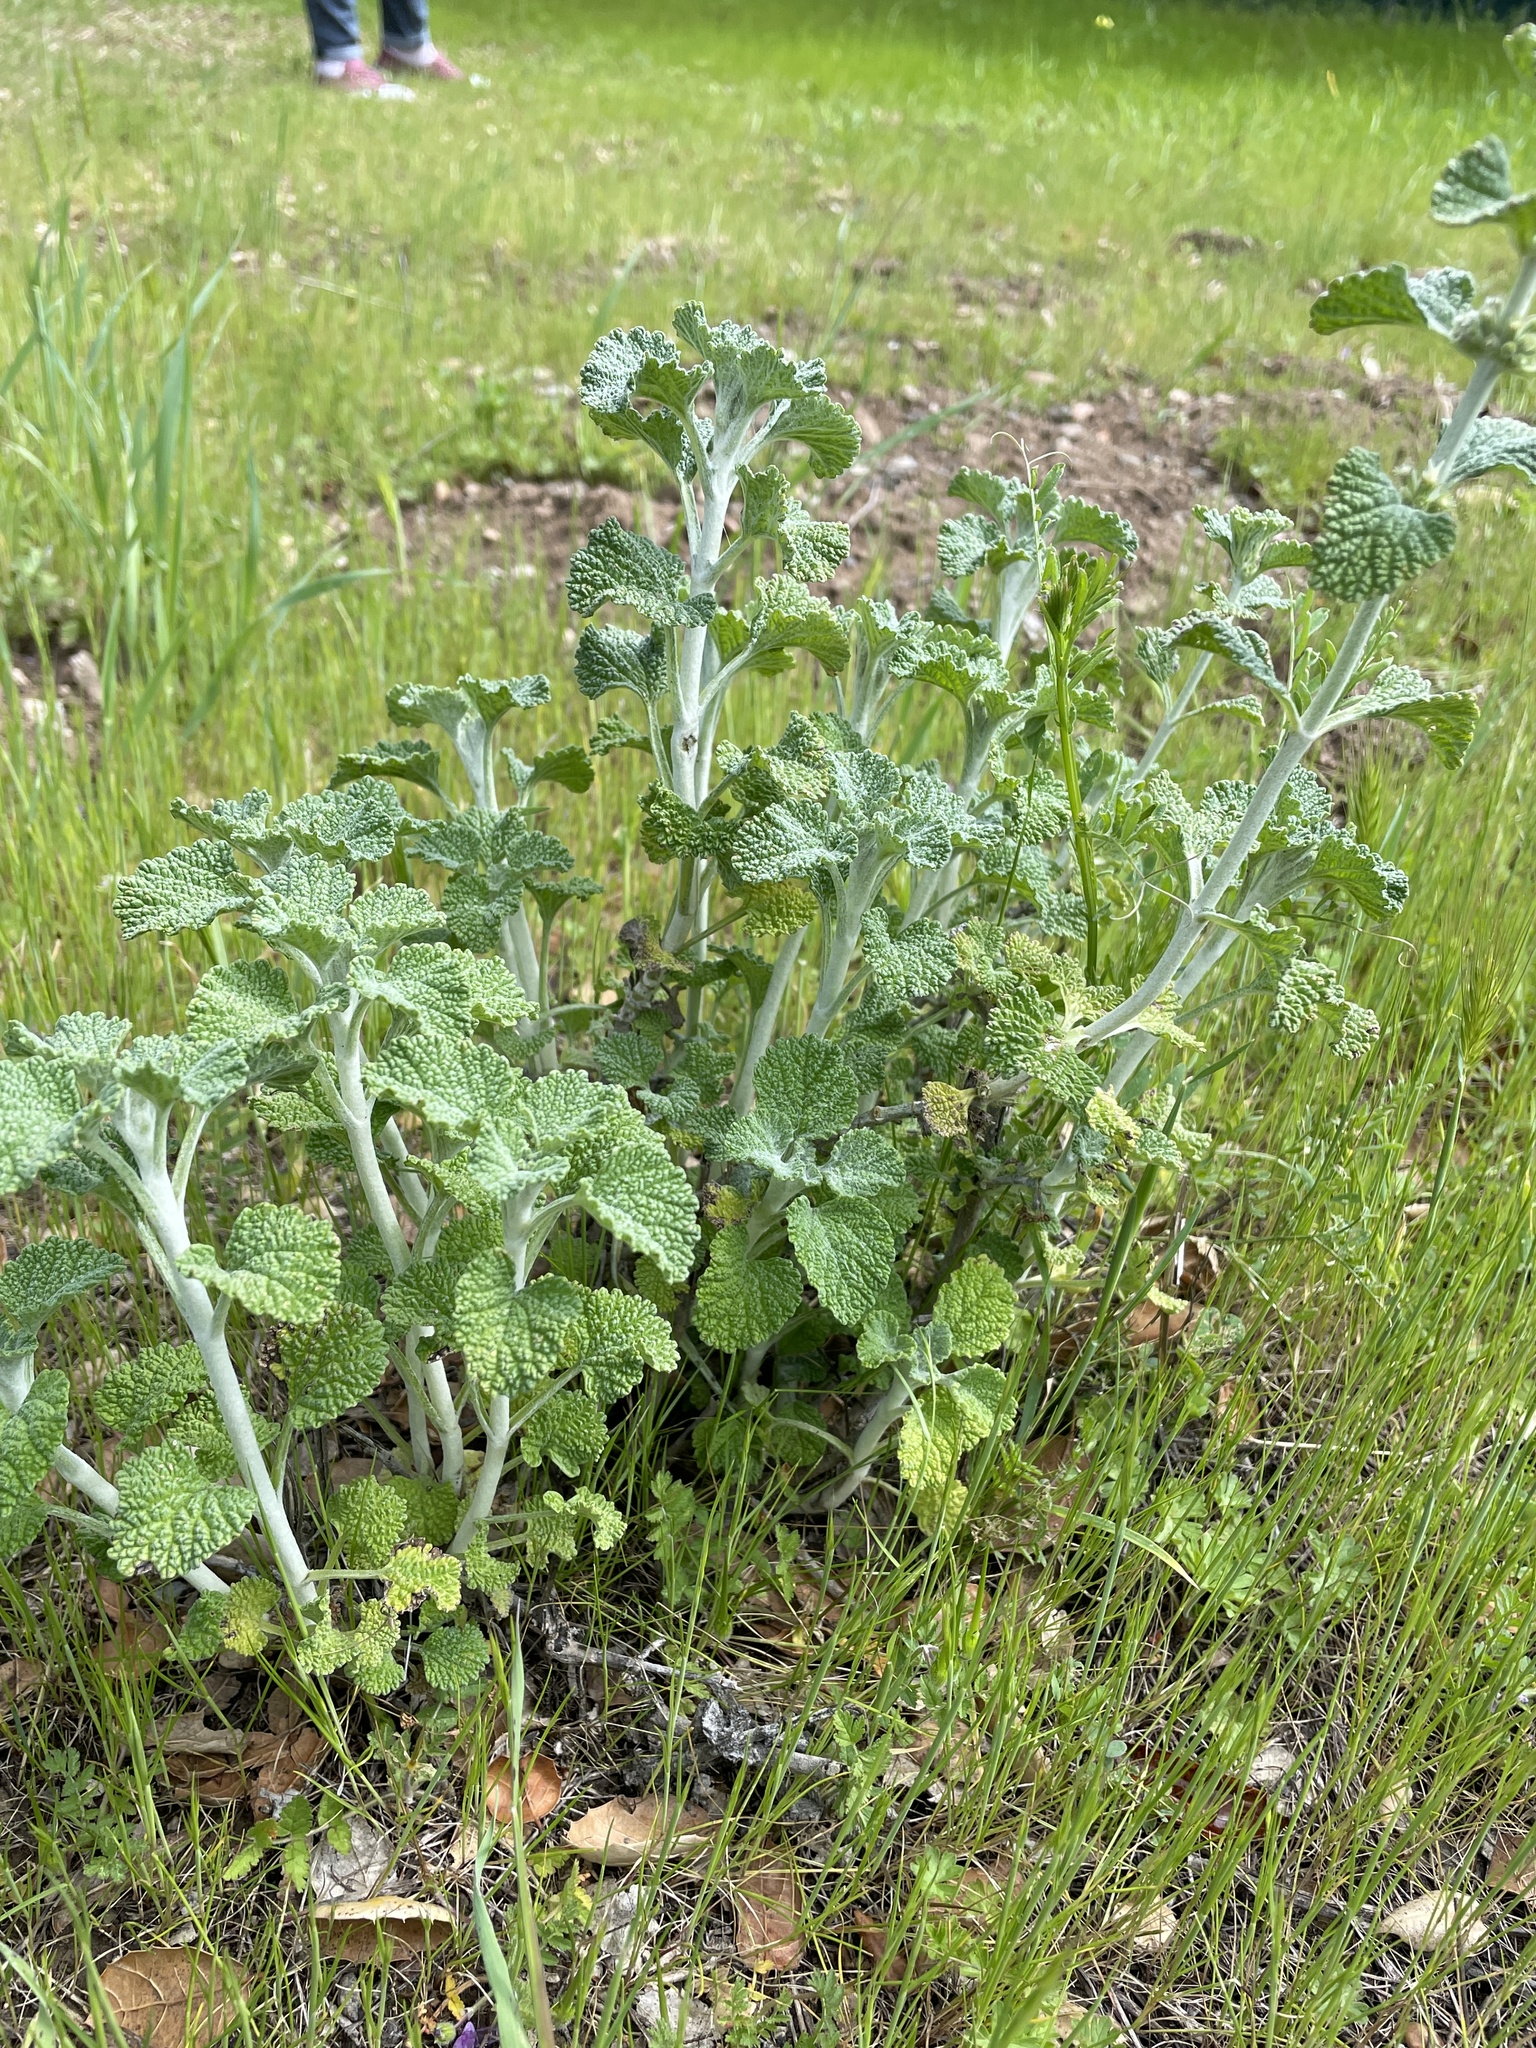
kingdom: Plantae
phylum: Tracheophyta
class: Magnoliopsida
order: Lamiales
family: Lamiaceae
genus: Marrubium
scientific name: Marrubium vulgare
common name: Horehound
